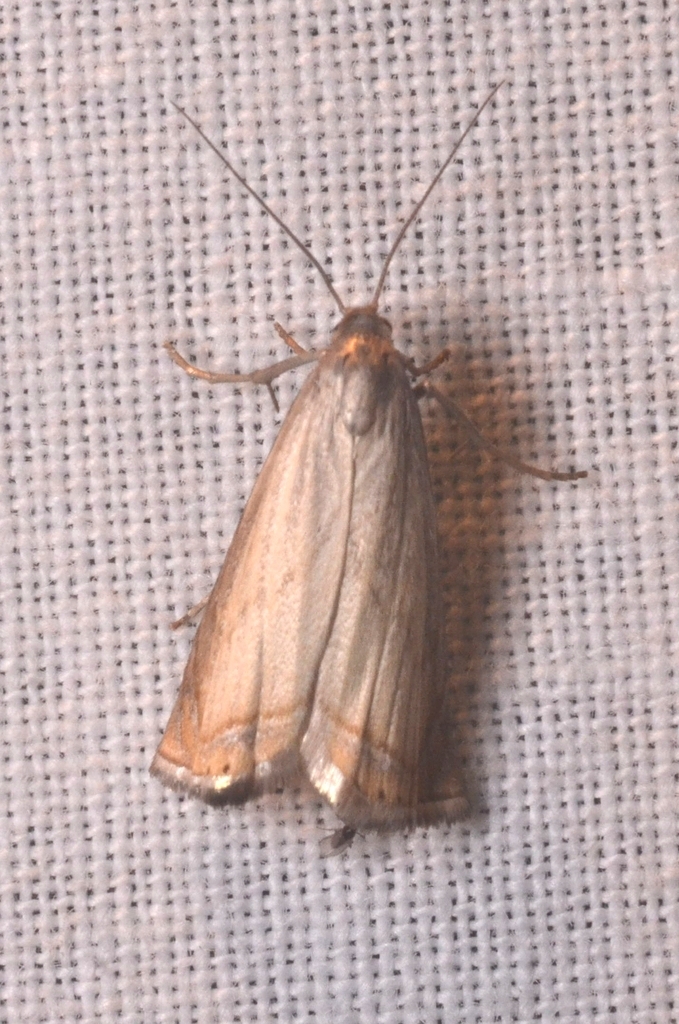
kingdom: Animalia
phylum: Arthropoda
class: Insecta
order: Lepidoptera
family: Crambidae
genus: Chrysoteuchia
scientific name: Chrysoteuchia culmella
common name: Garden grass-veneer
